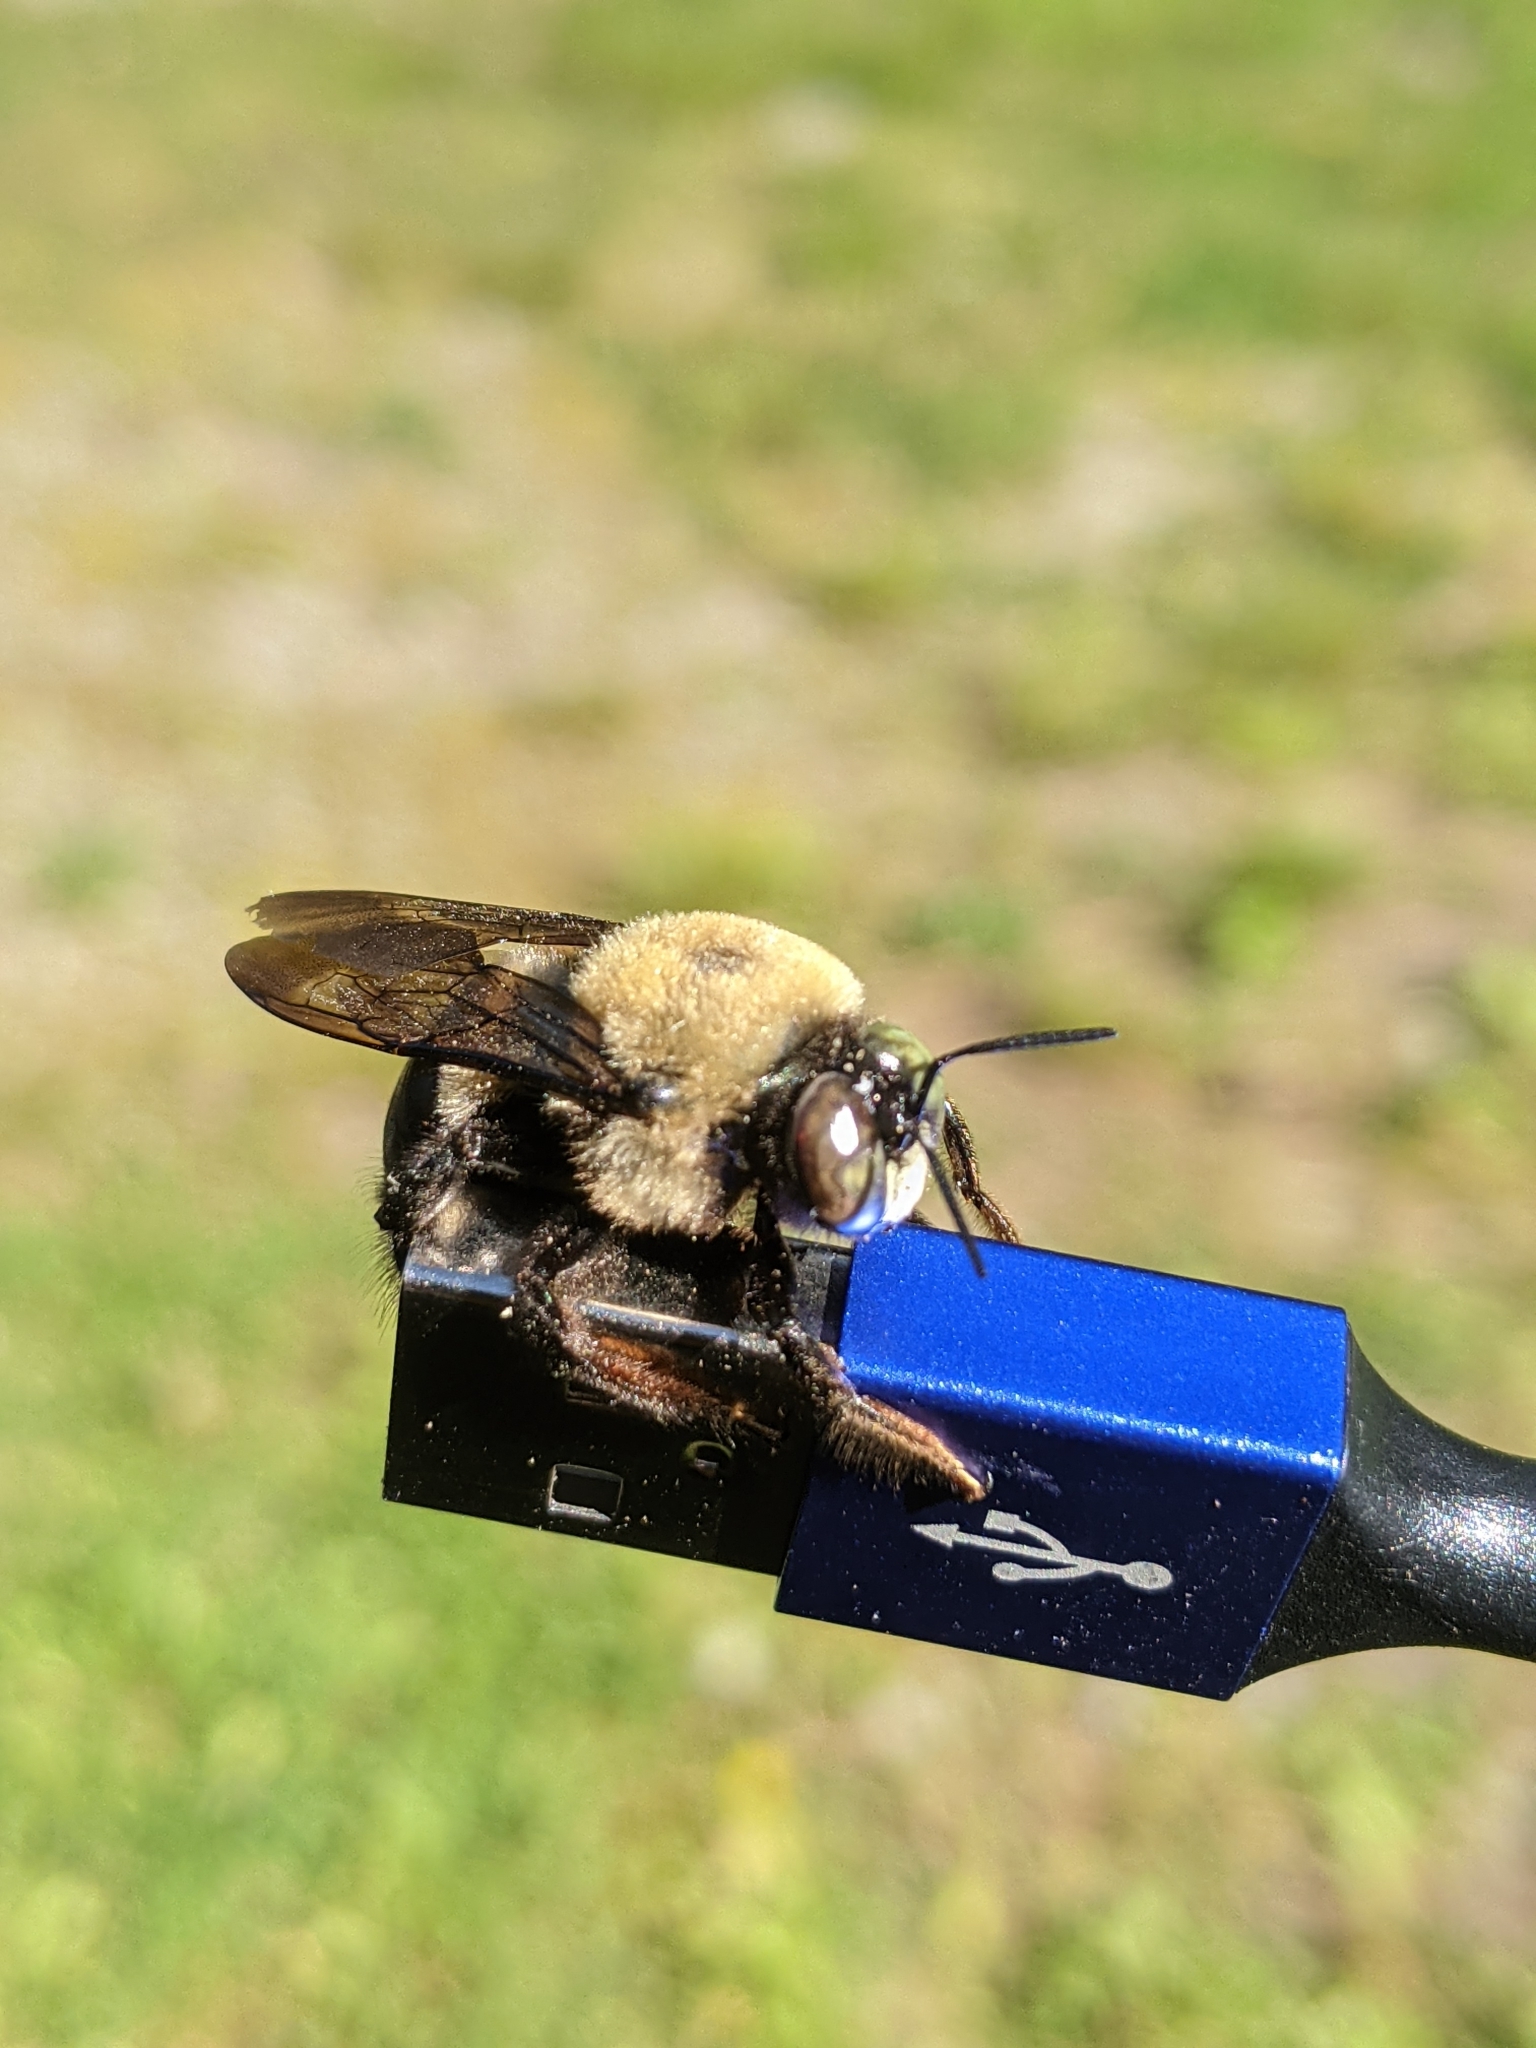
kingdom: Animalia
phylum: Arthropoda
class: Insecta
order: Hymenoptera
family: Apidae
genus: Xylocopa
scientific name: Xylocopa virginica
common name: Carpenter bee
